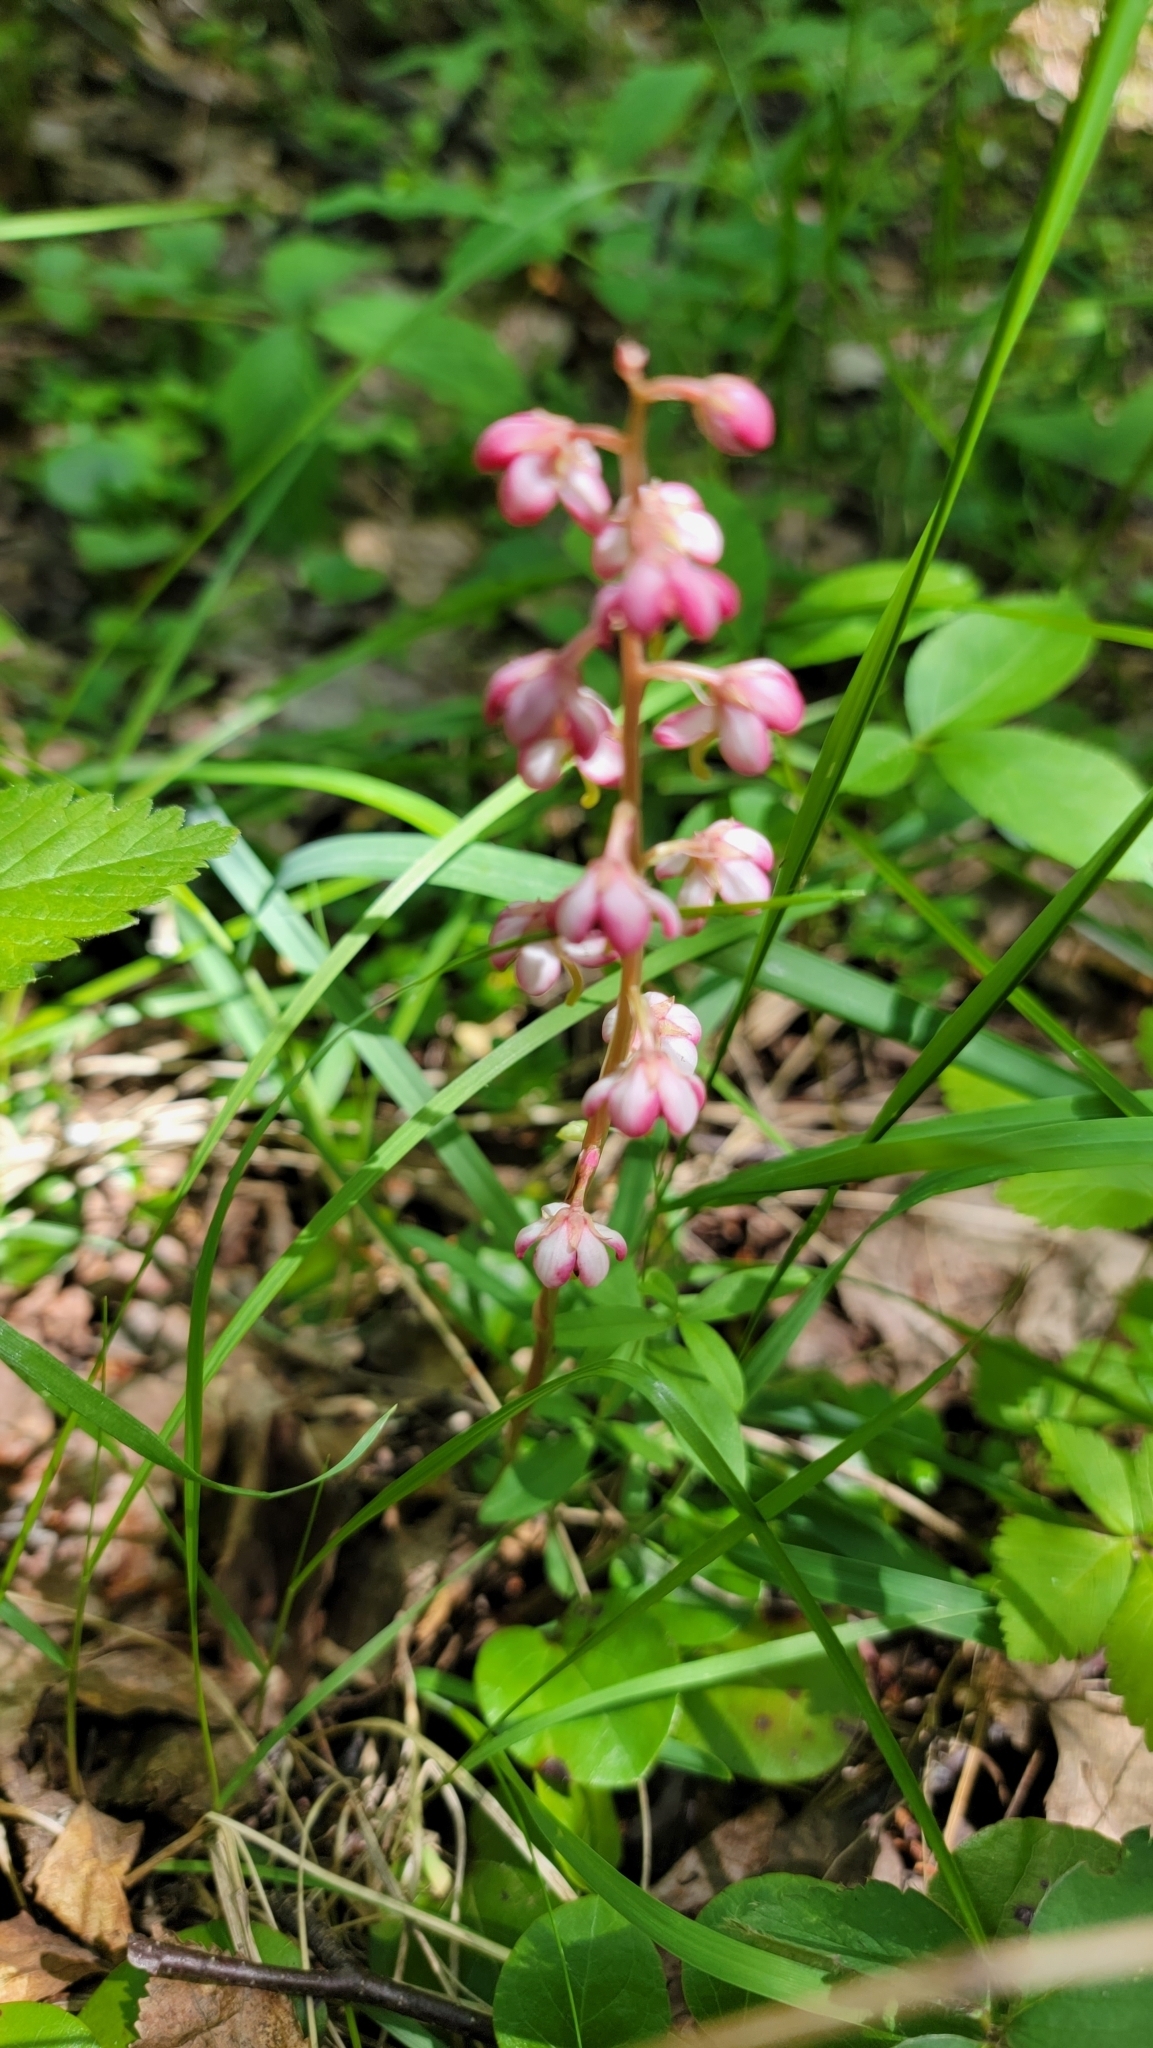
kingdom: Plantae
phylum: Tracheophyta
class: Magnoliopsida
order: Ericales
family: Ericaceae
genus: Pyrola
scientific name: Pyrola asarifolia
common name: Bog wintergreen
